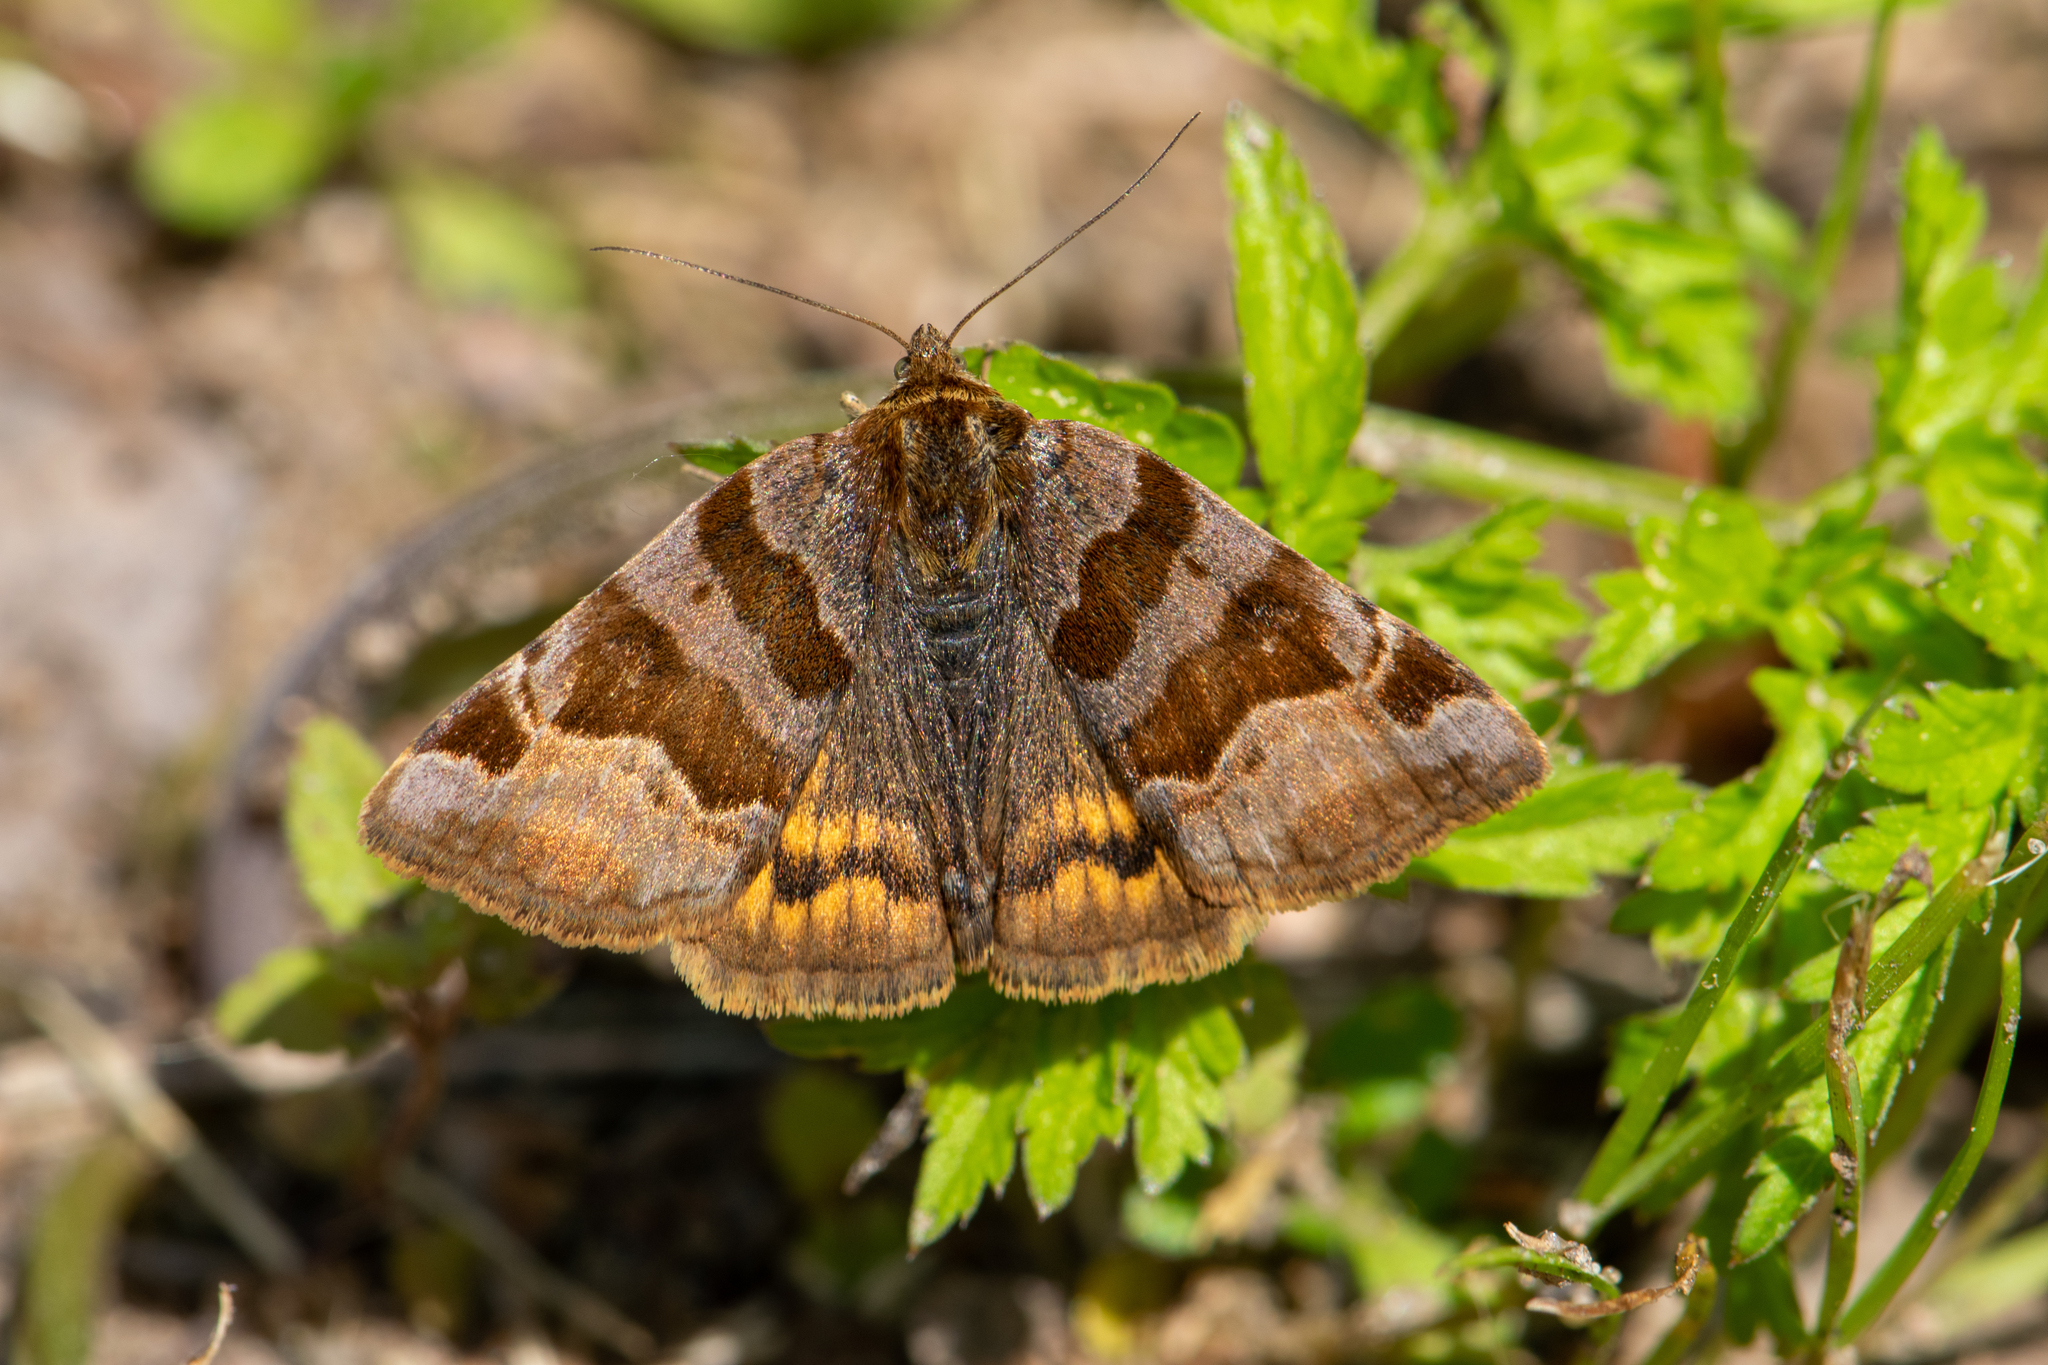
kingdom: Animalia
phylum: Arthropoda
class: Insecta
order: Lepidoptera
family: Erebidae
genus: Euclidia
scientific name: Euclidia glyphica
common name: Burnet companion
